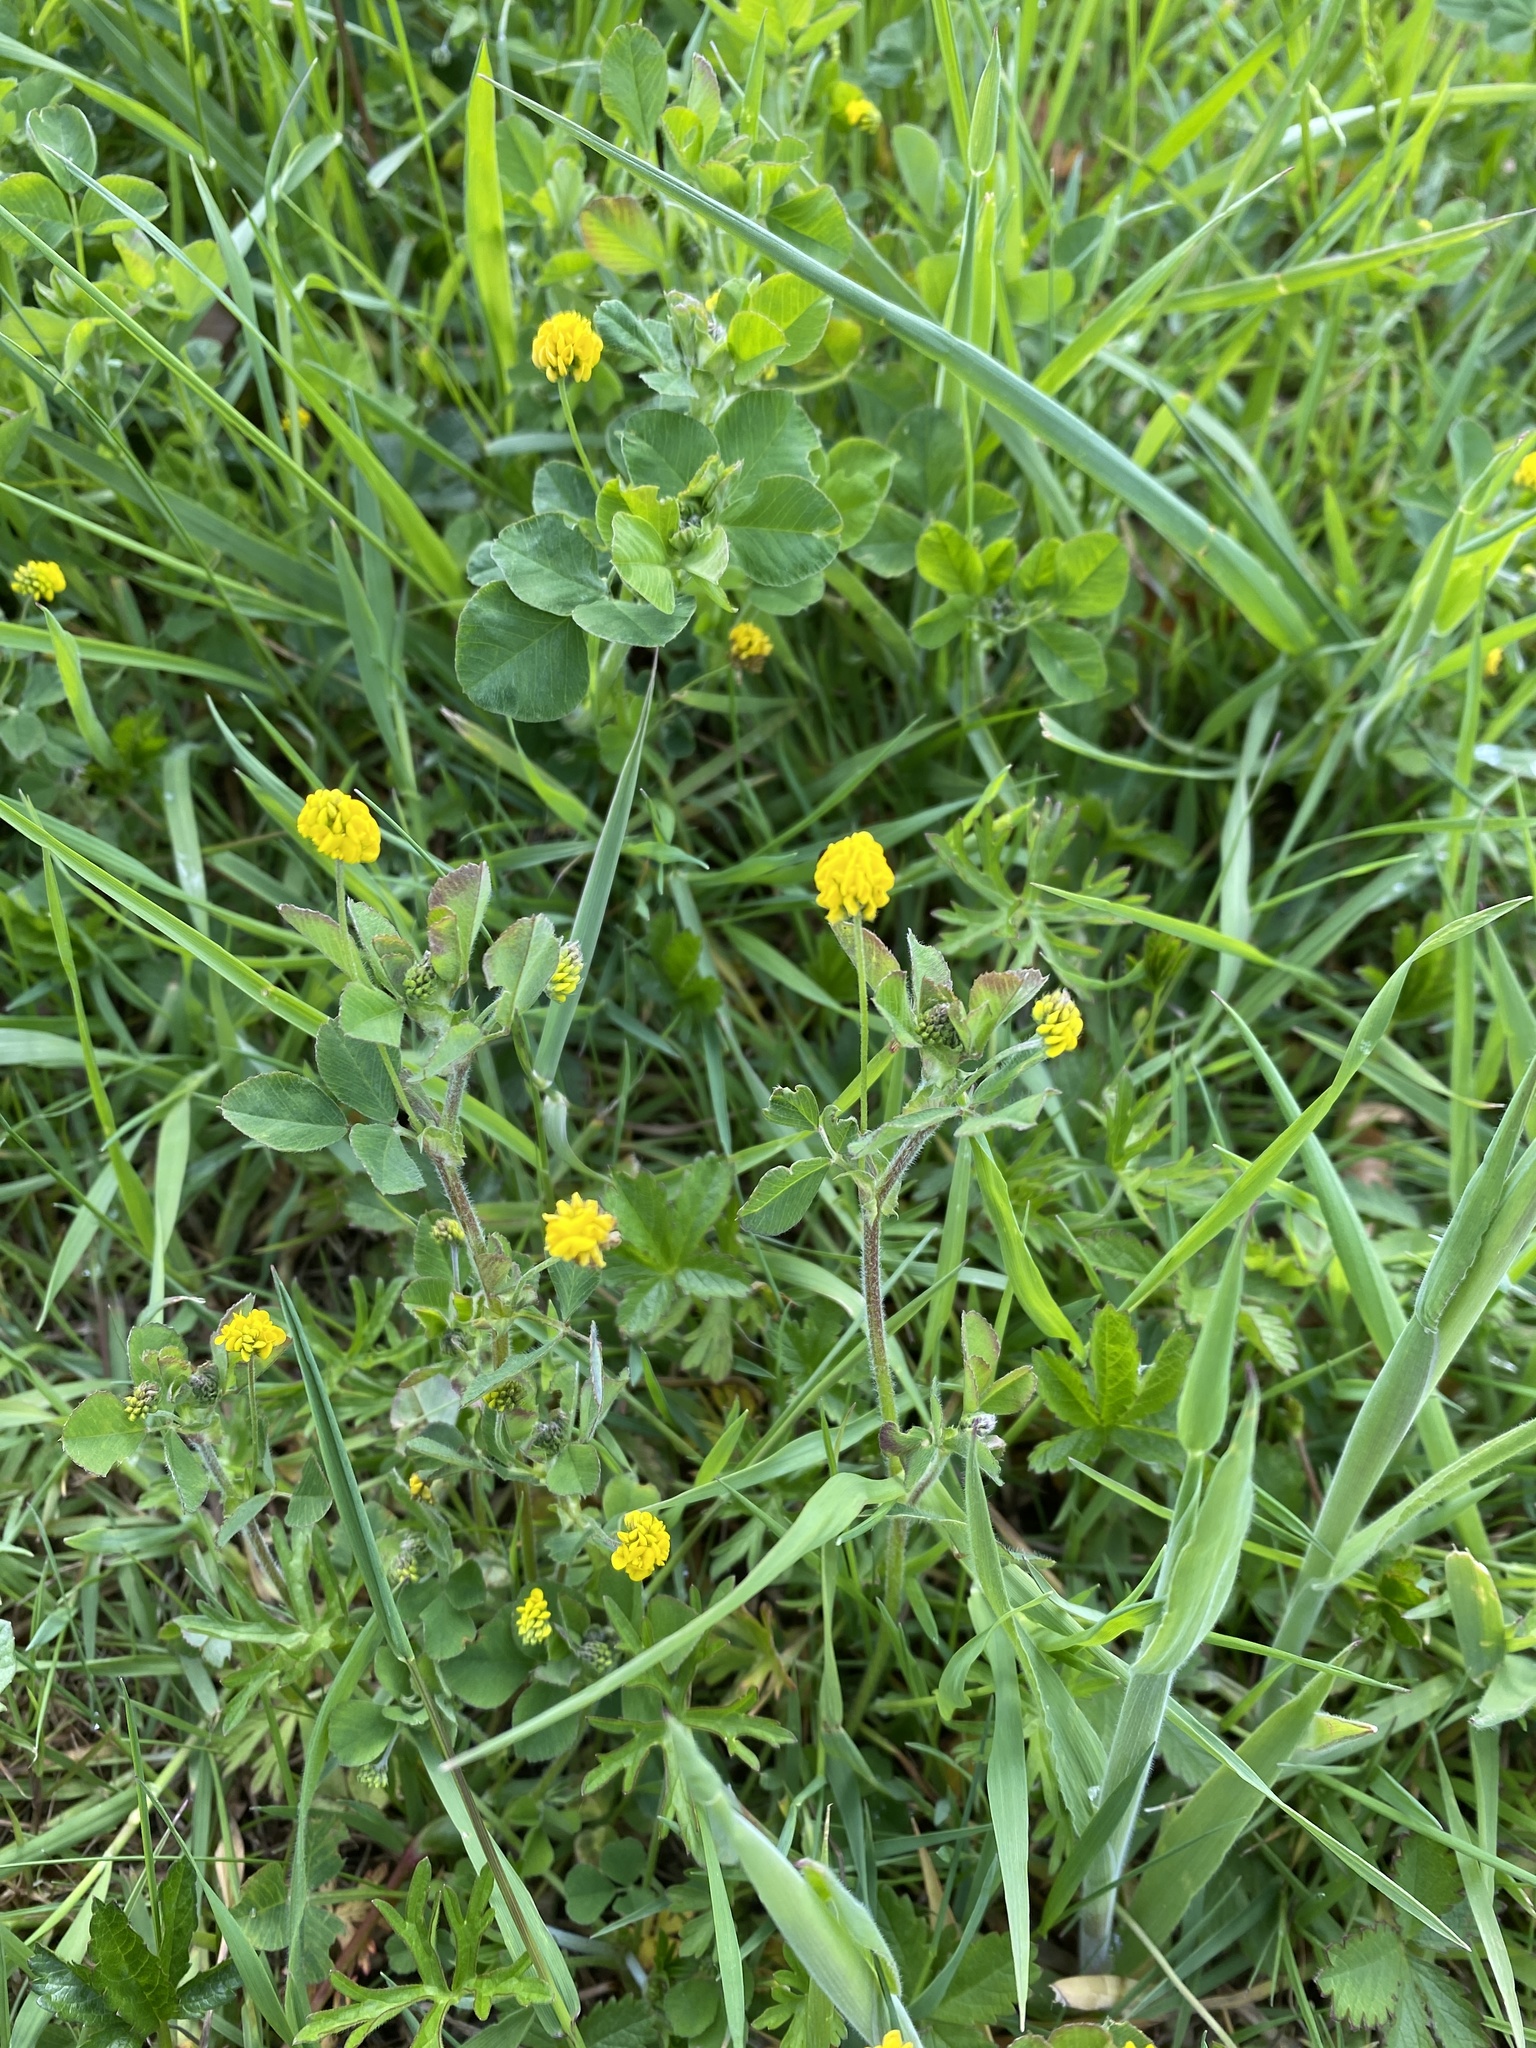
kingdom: Plantae
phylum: Tracheophyta
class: Magnoliopsida
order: Fabales
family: Fabaceae
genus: Medicago
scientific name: Medicago lupulina
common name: Black medick
